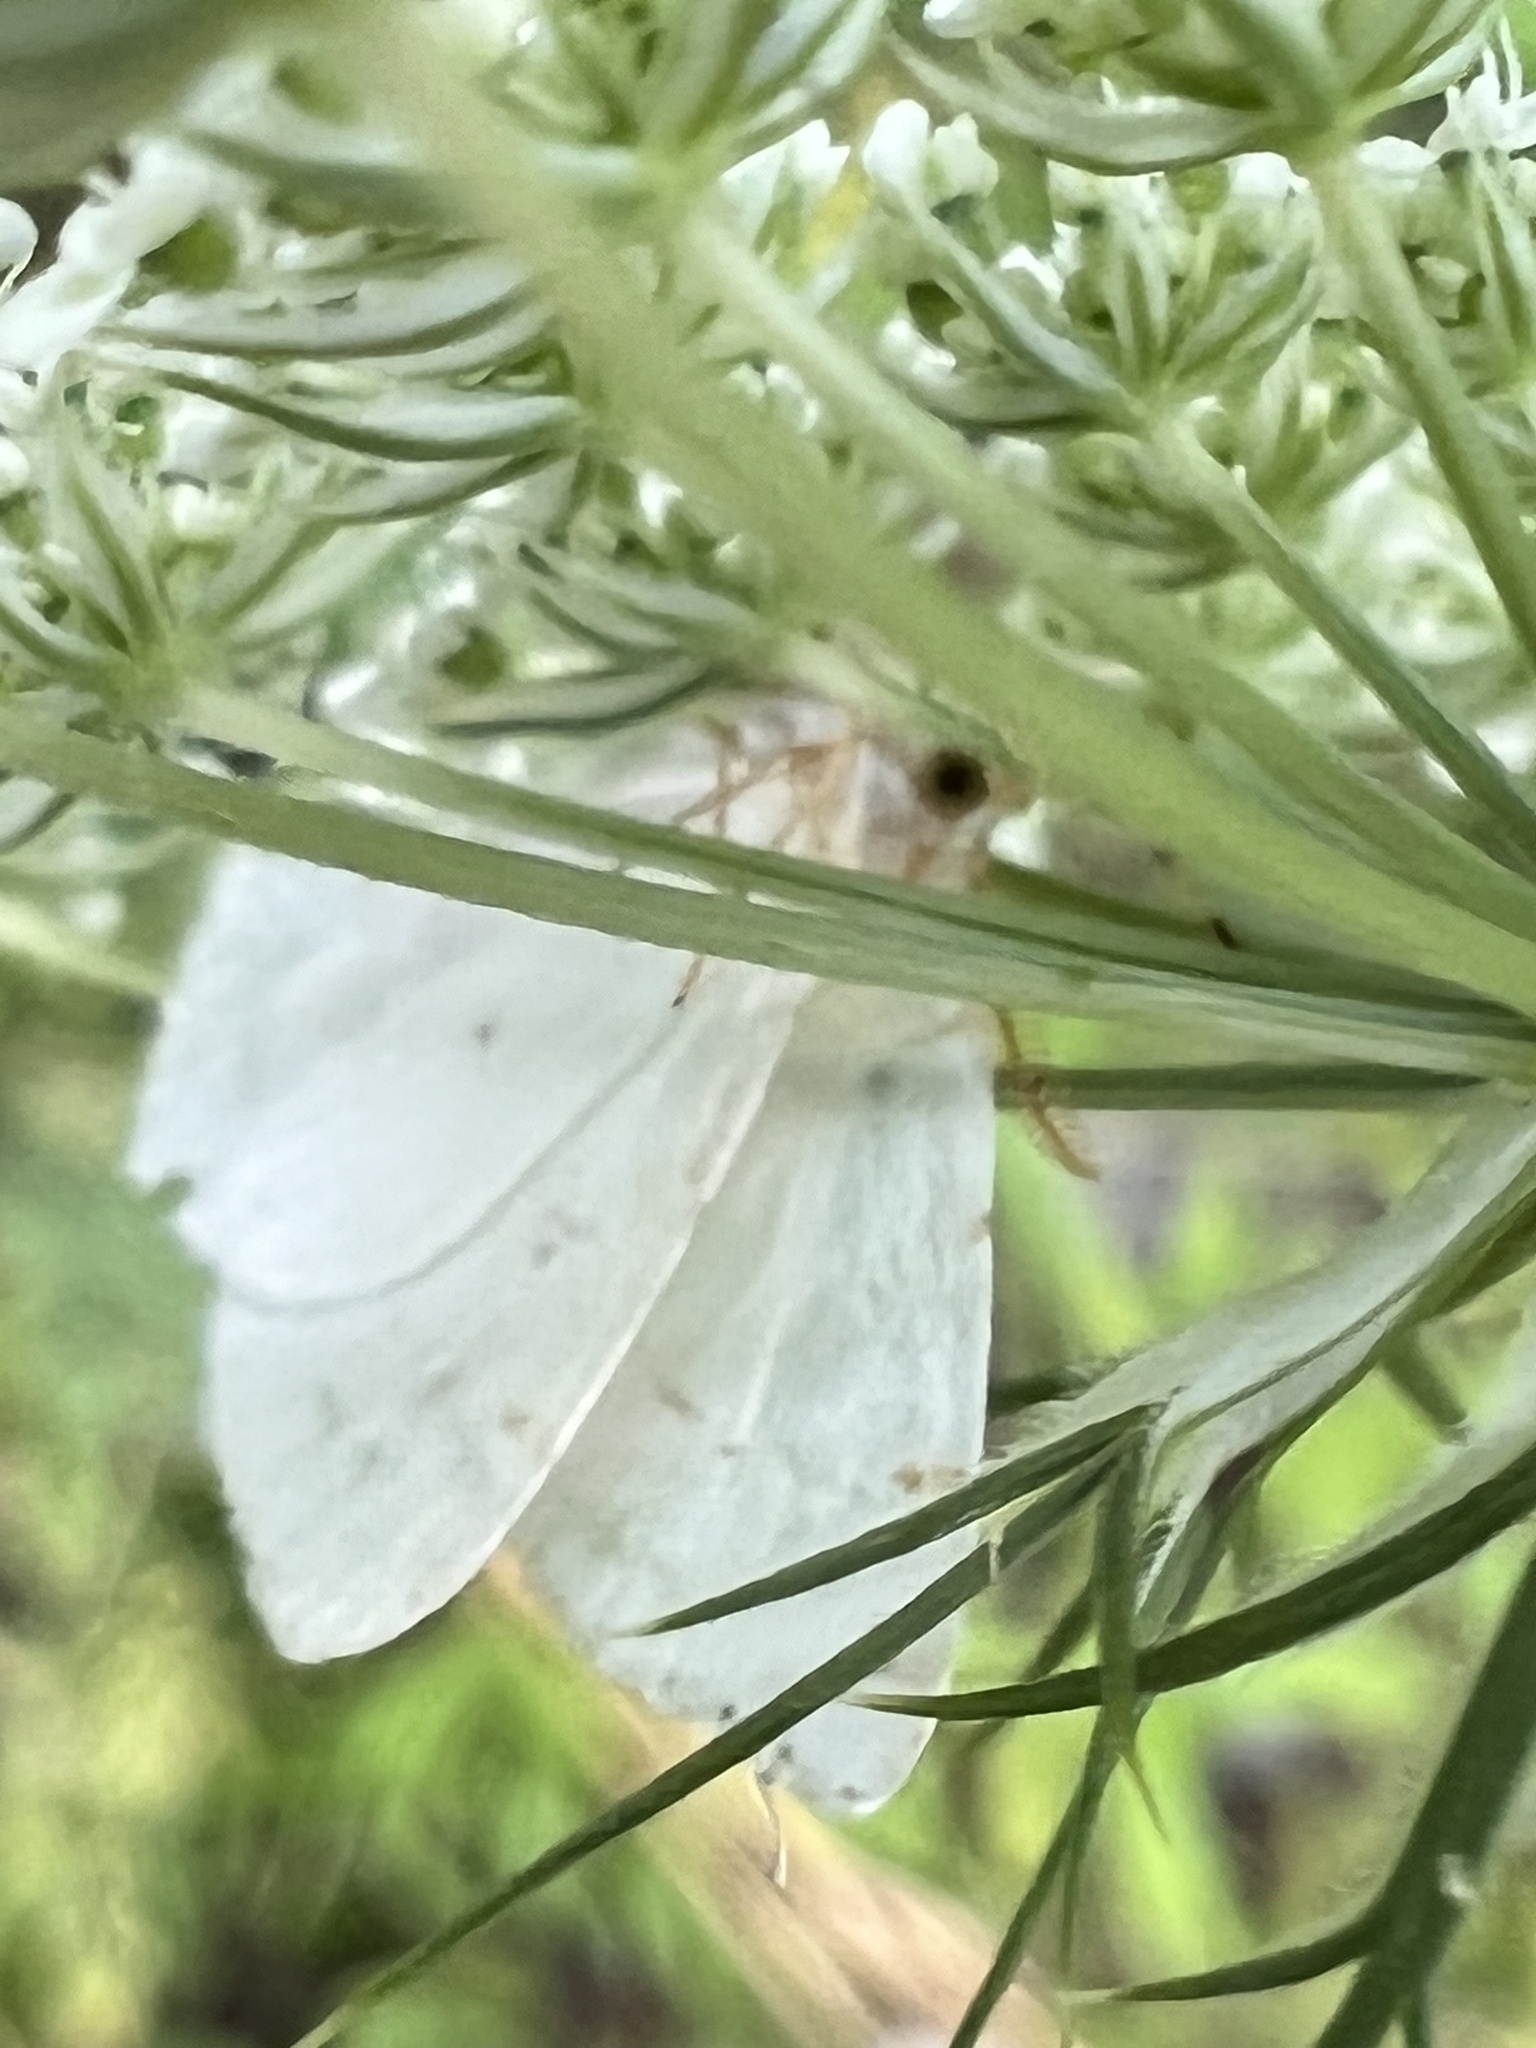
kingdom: Animalia
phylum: Arthropoda
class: Insecta
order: Lepidoptera
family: Geometridae
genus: Macaria
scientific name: Macaria pustularia
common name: Lesser maple spanworm moth
